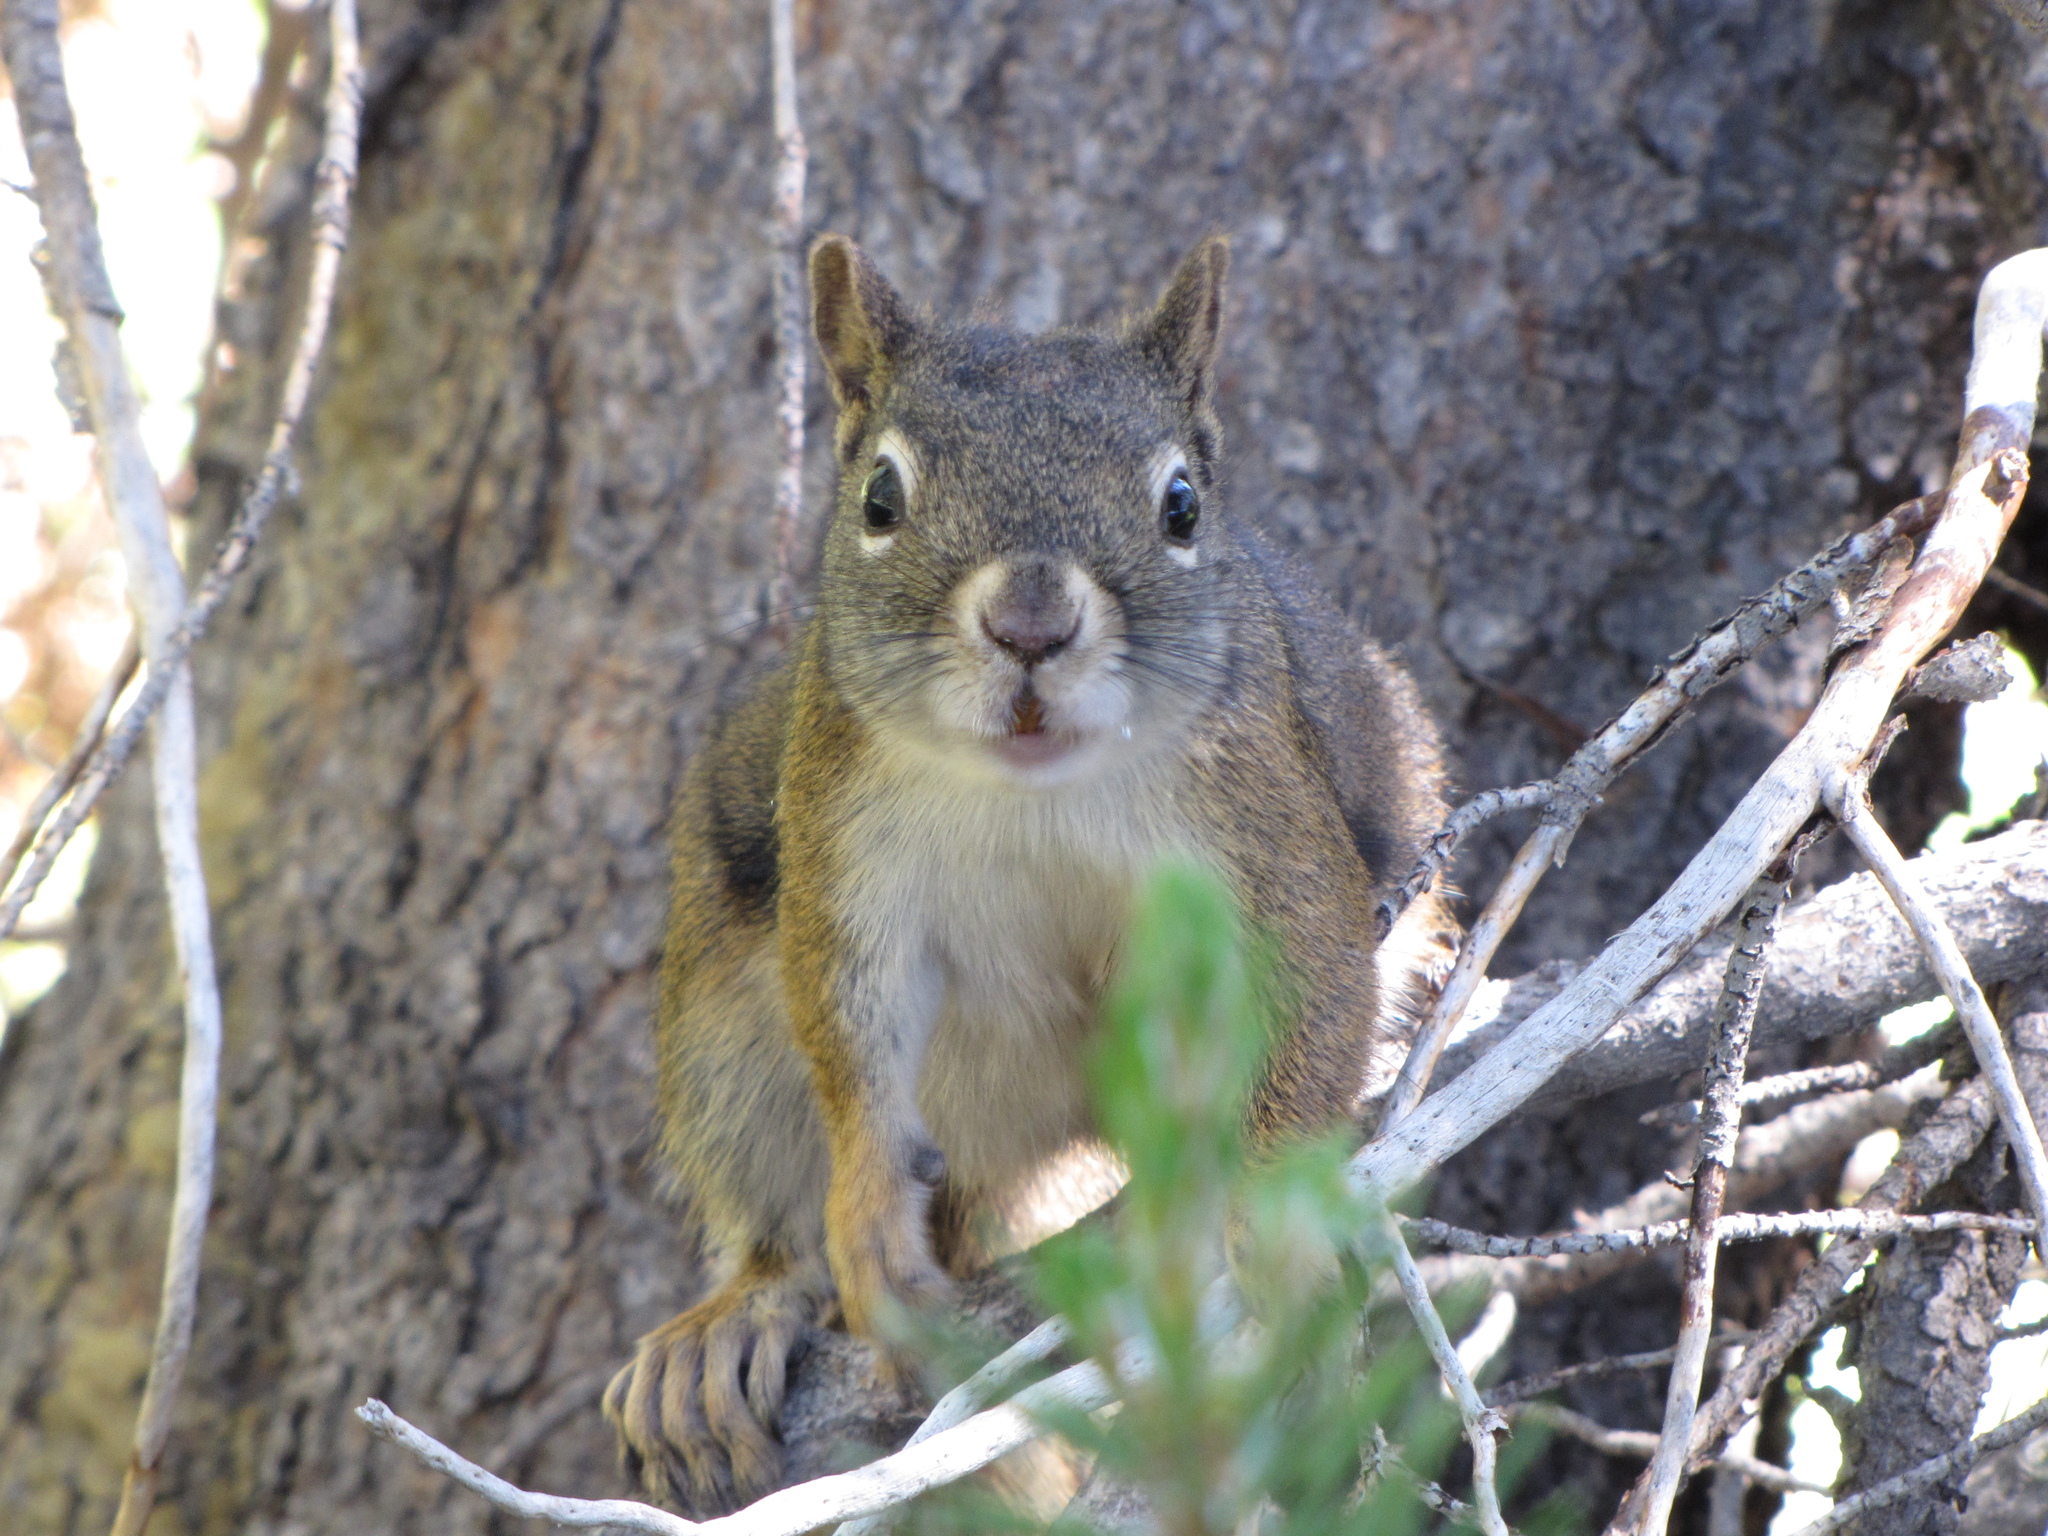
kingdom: Animalia
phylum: Chordata
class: Mammalia
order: Rodentia
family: Sciuridae
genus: Tamiasciurus
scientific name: Tamiasciurus hudsonicus
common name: Red squirrel
